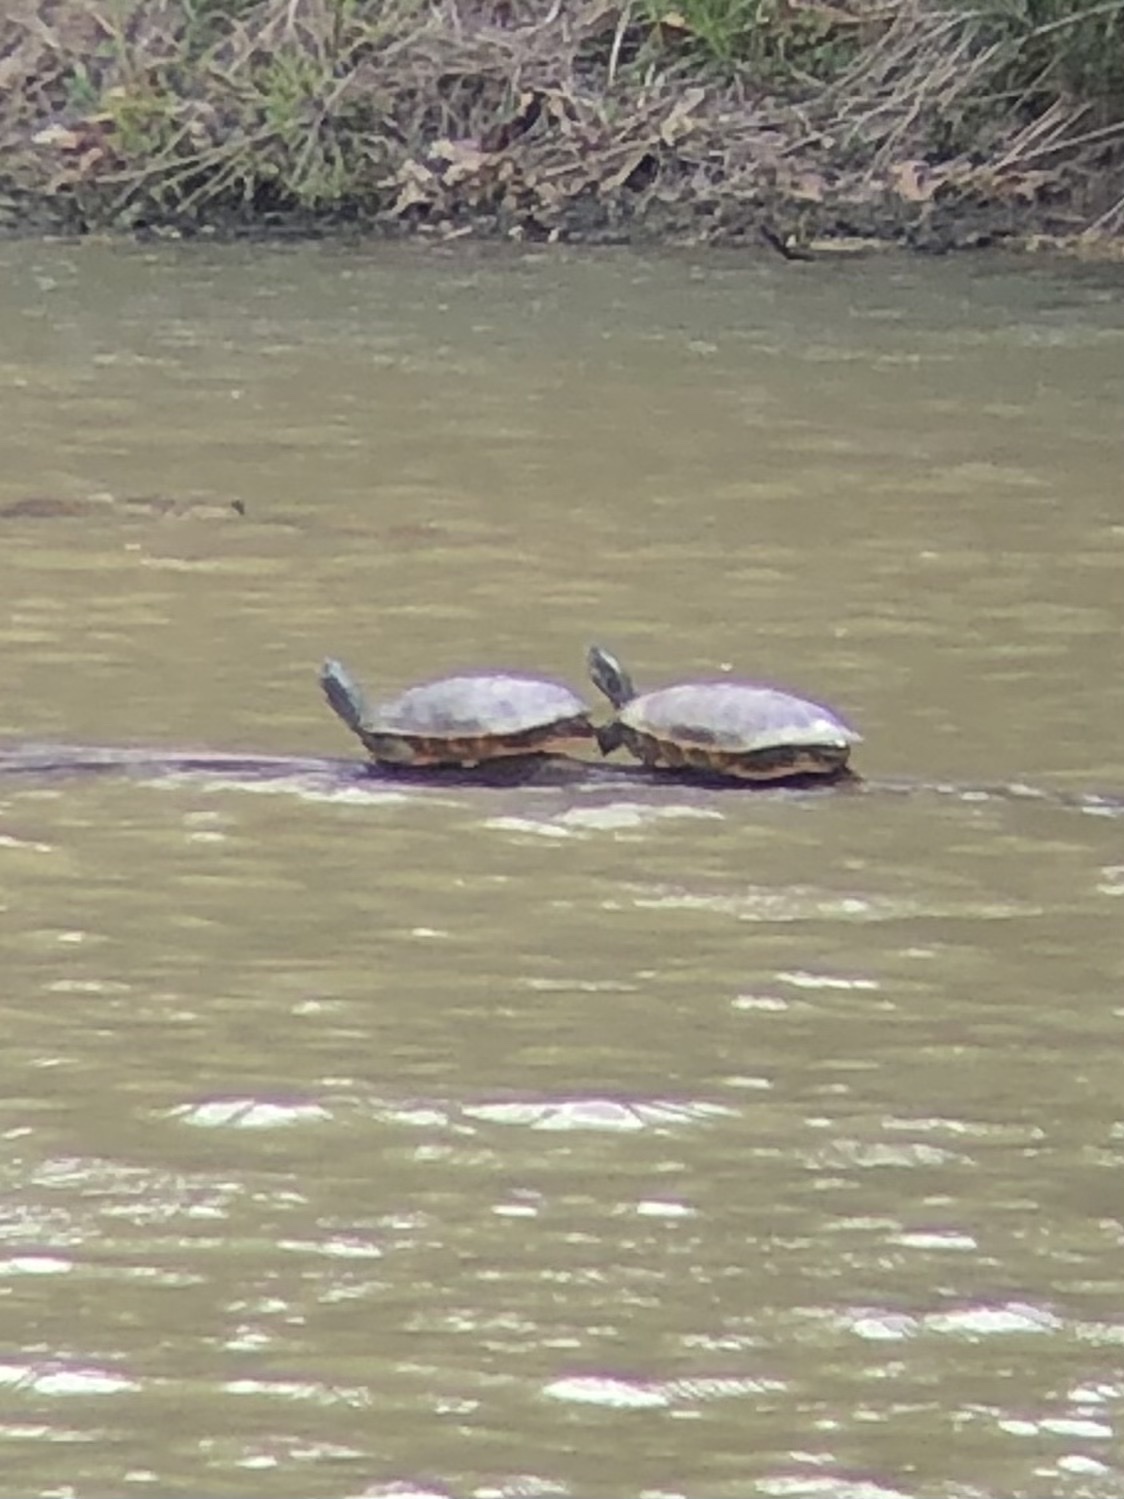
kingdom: Animalia
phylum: Chordata
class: Testudines
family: Emydidae
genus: Pseudemys
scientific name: Pseudemys rubriventris
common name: American red-bellied turtle
